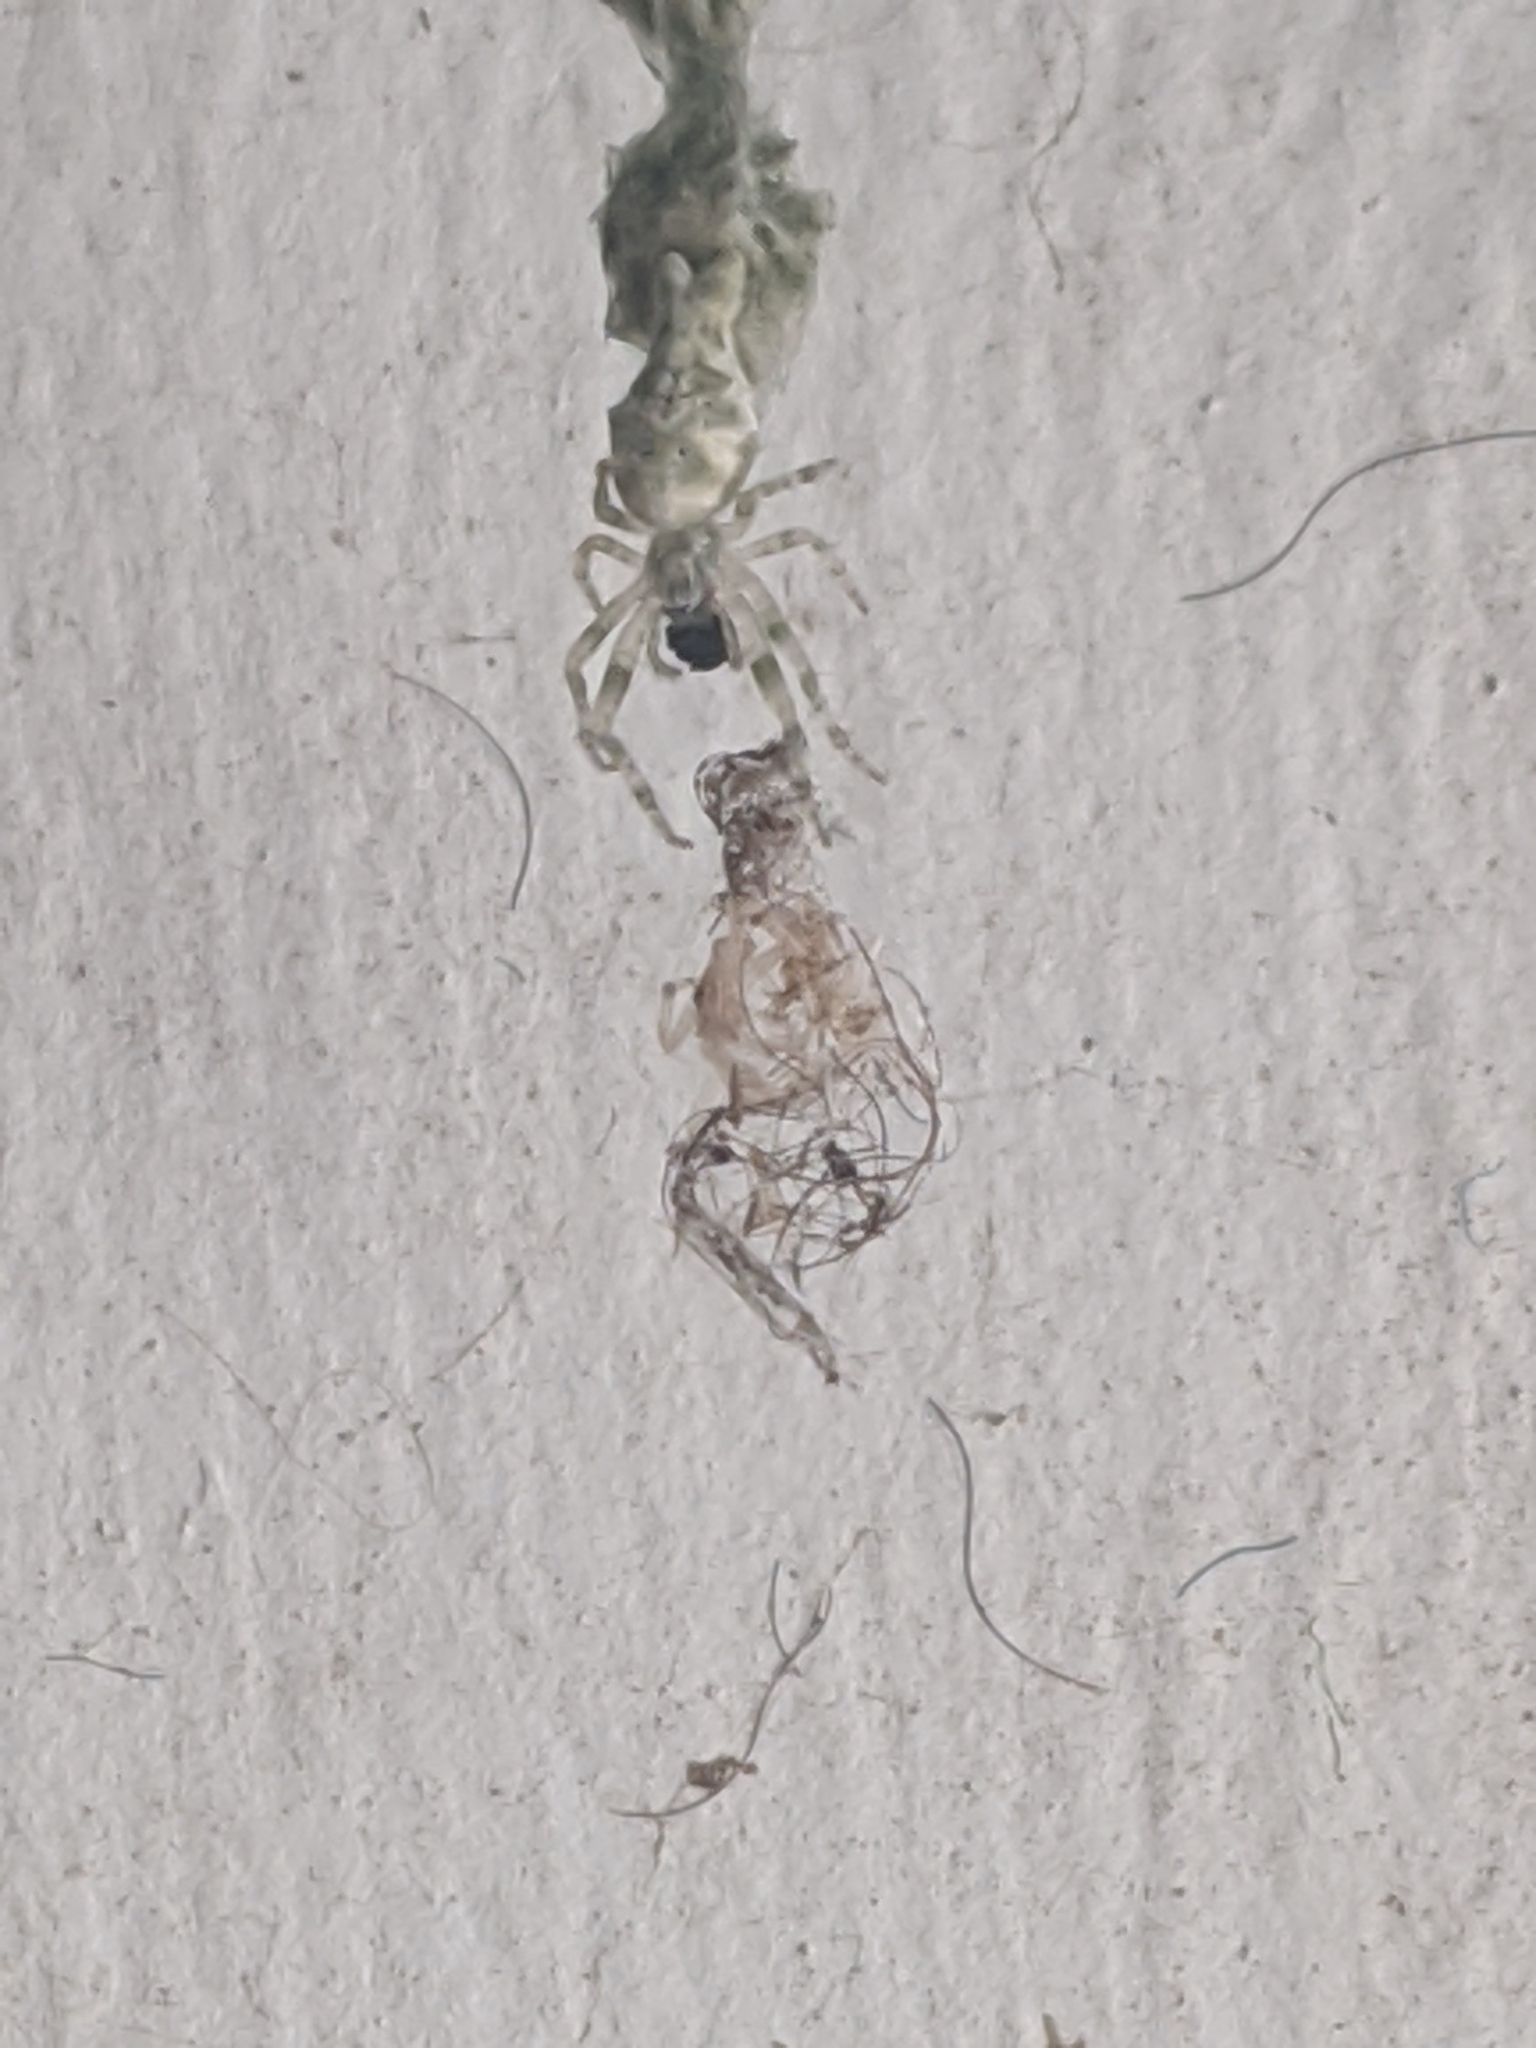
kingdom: Animalia
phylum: Arthropoda
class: Arachnida
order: Araneae
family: Araneidae
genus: Allocyclosa
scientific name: Allocyclosa bifurca
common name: Orb weavers
